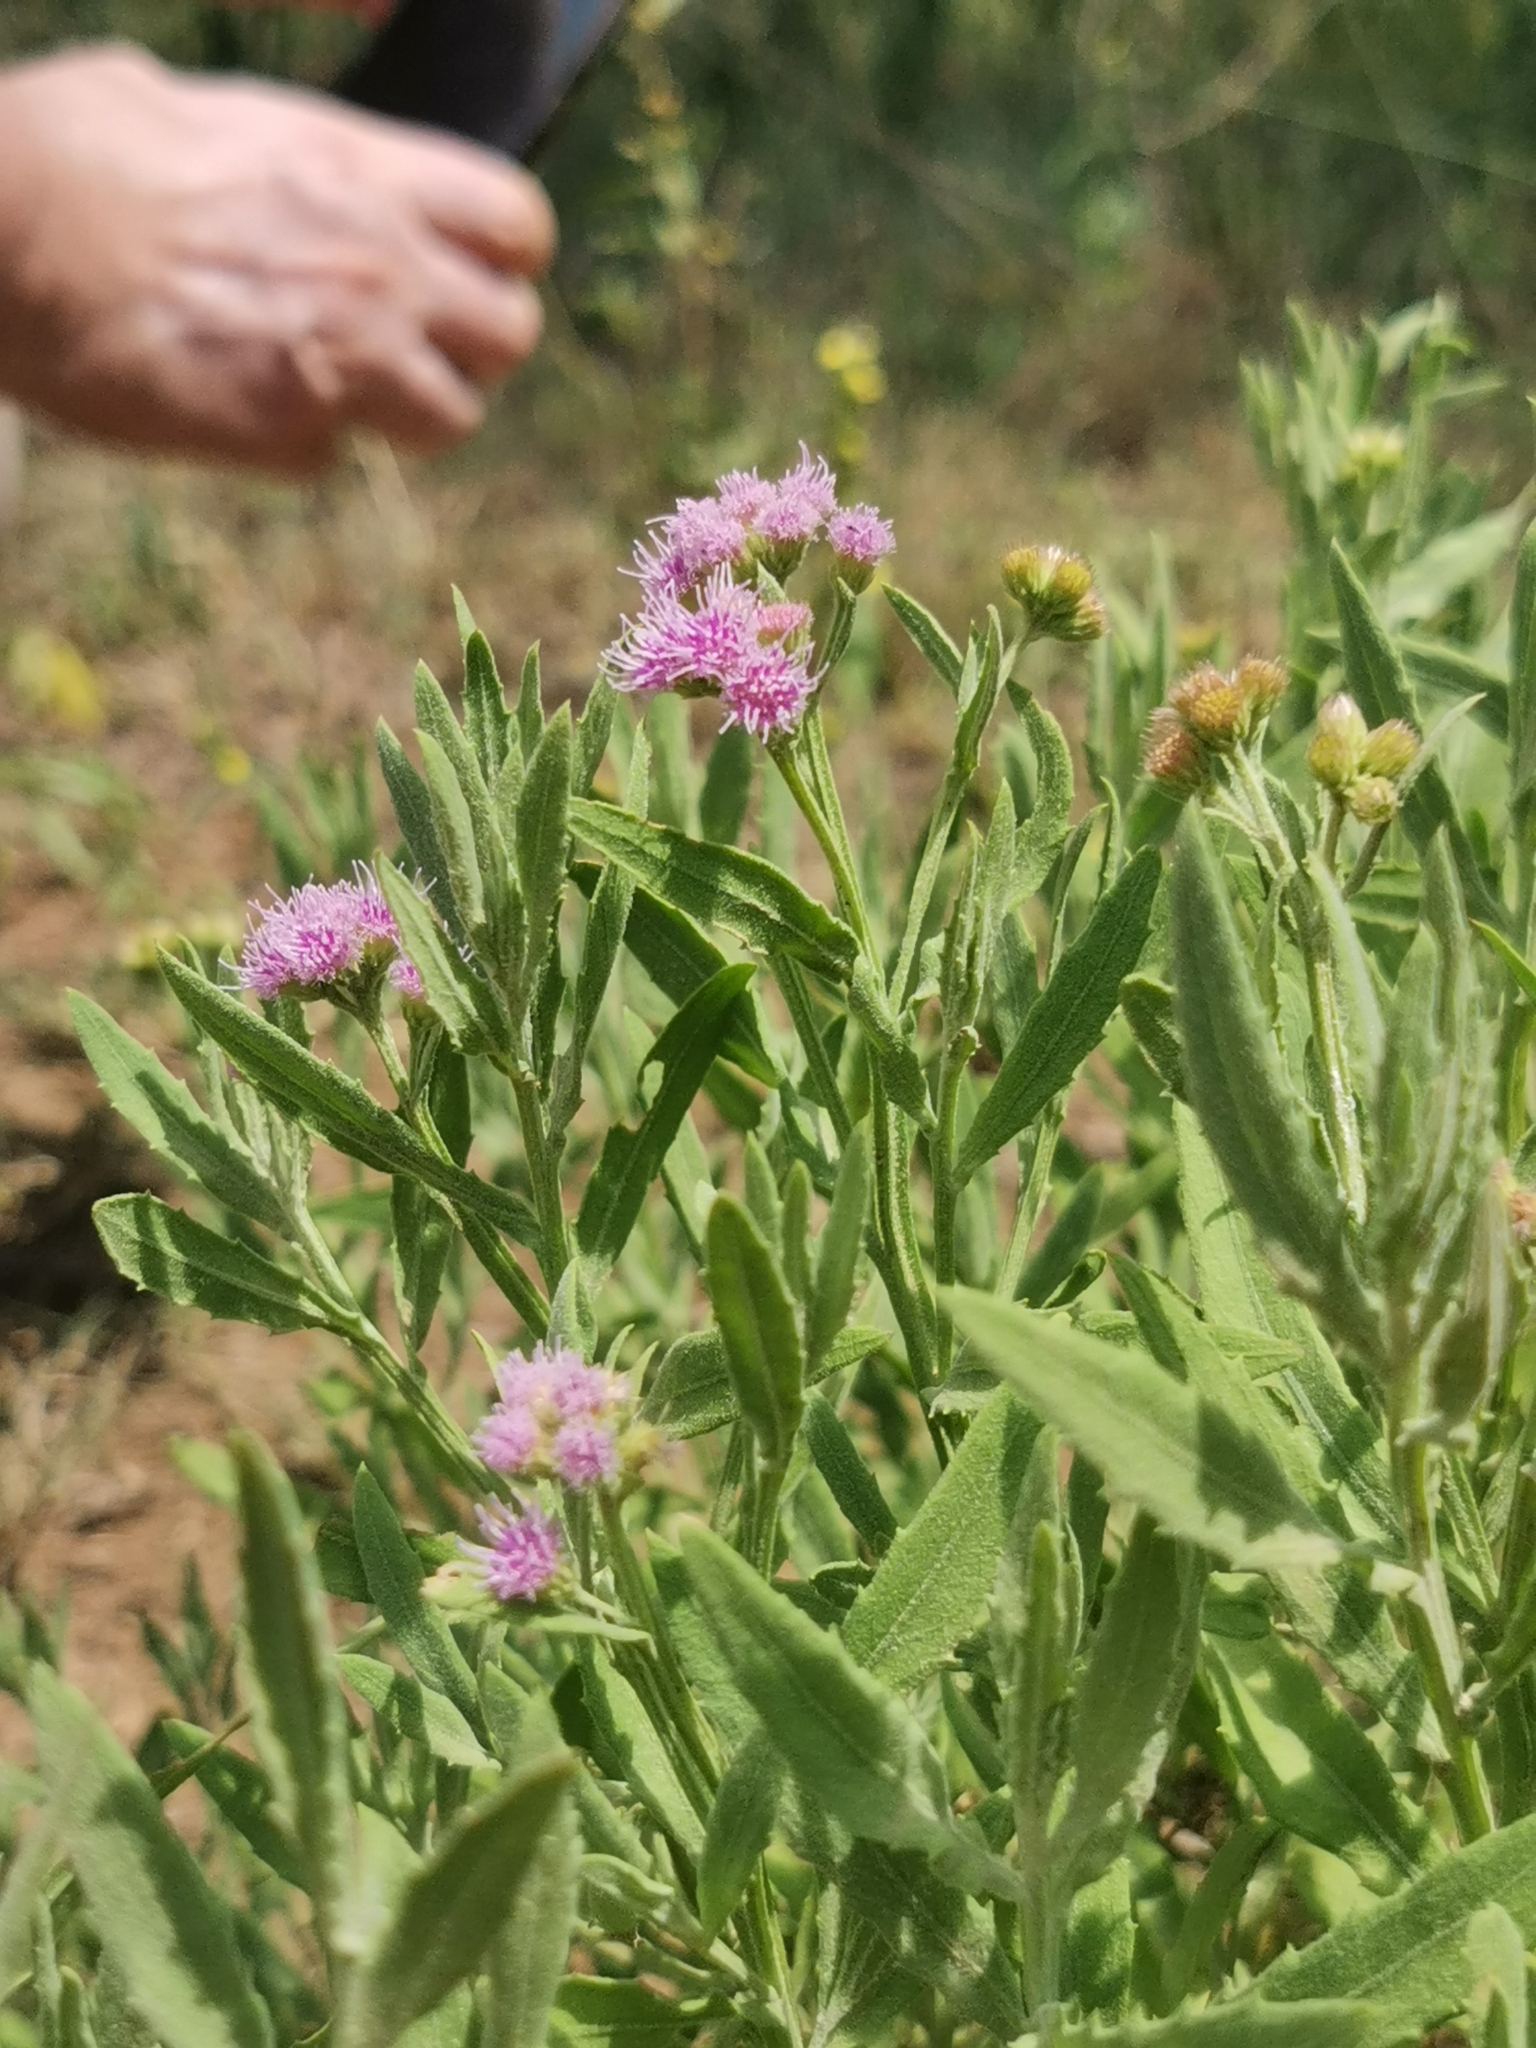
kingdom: Plantae
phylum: Tracheophyta
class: Magnoliopsida
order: Asterales
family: Asteraceae
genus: Litogyne
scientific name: Litogyne gariepina
